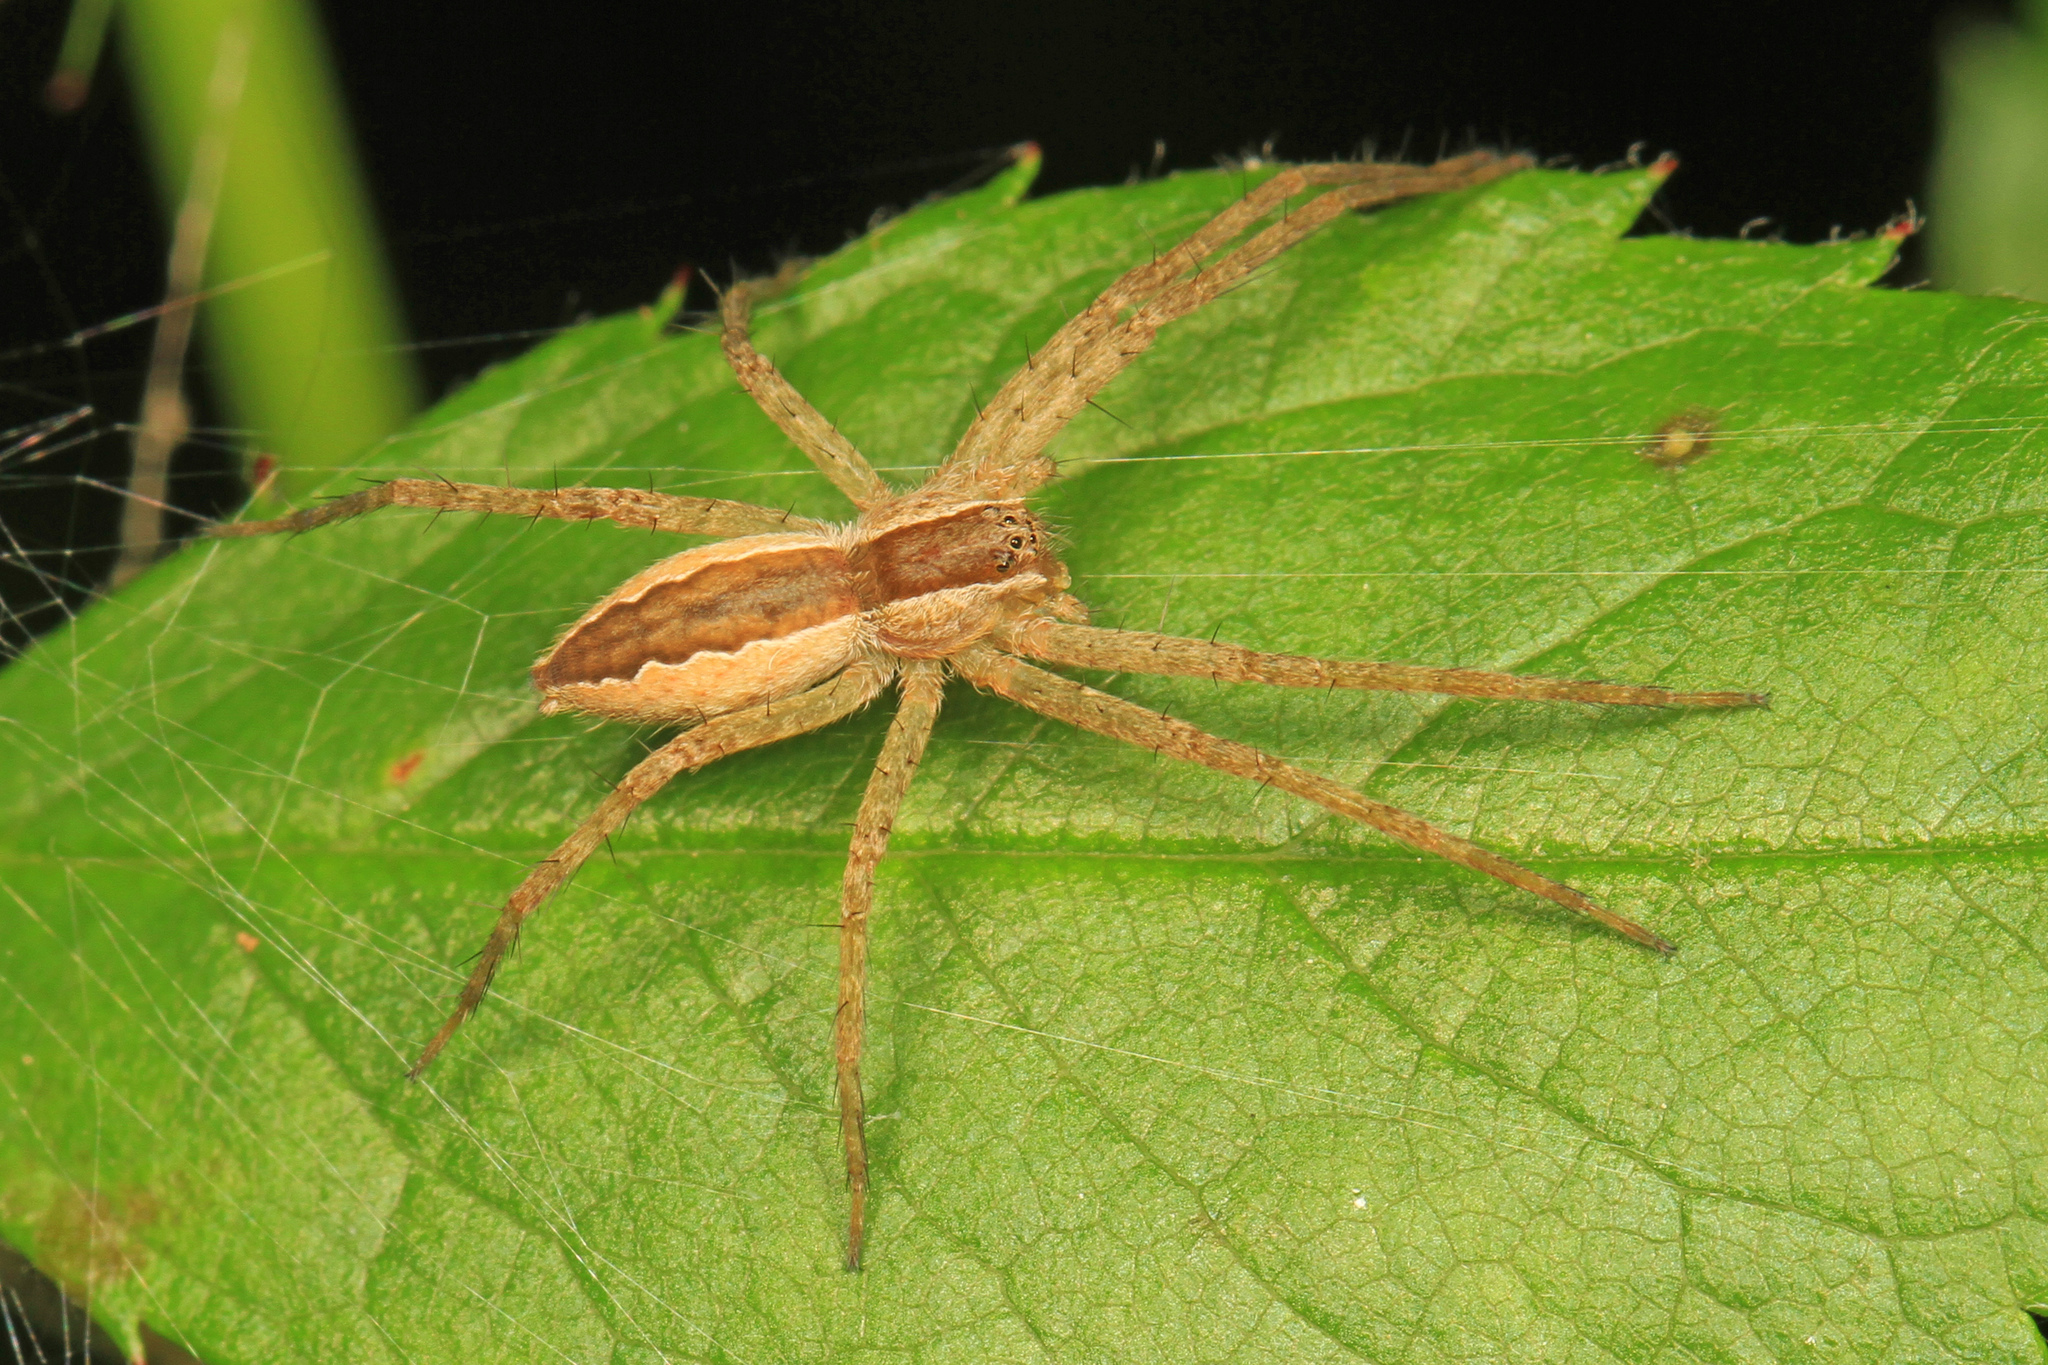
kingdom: Animalia
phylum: Arthropoda
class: Arachnida
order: Araneae
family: Pisauridae
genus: Pisaurina
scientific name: Pisaurina mira
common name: American nursery web spider
